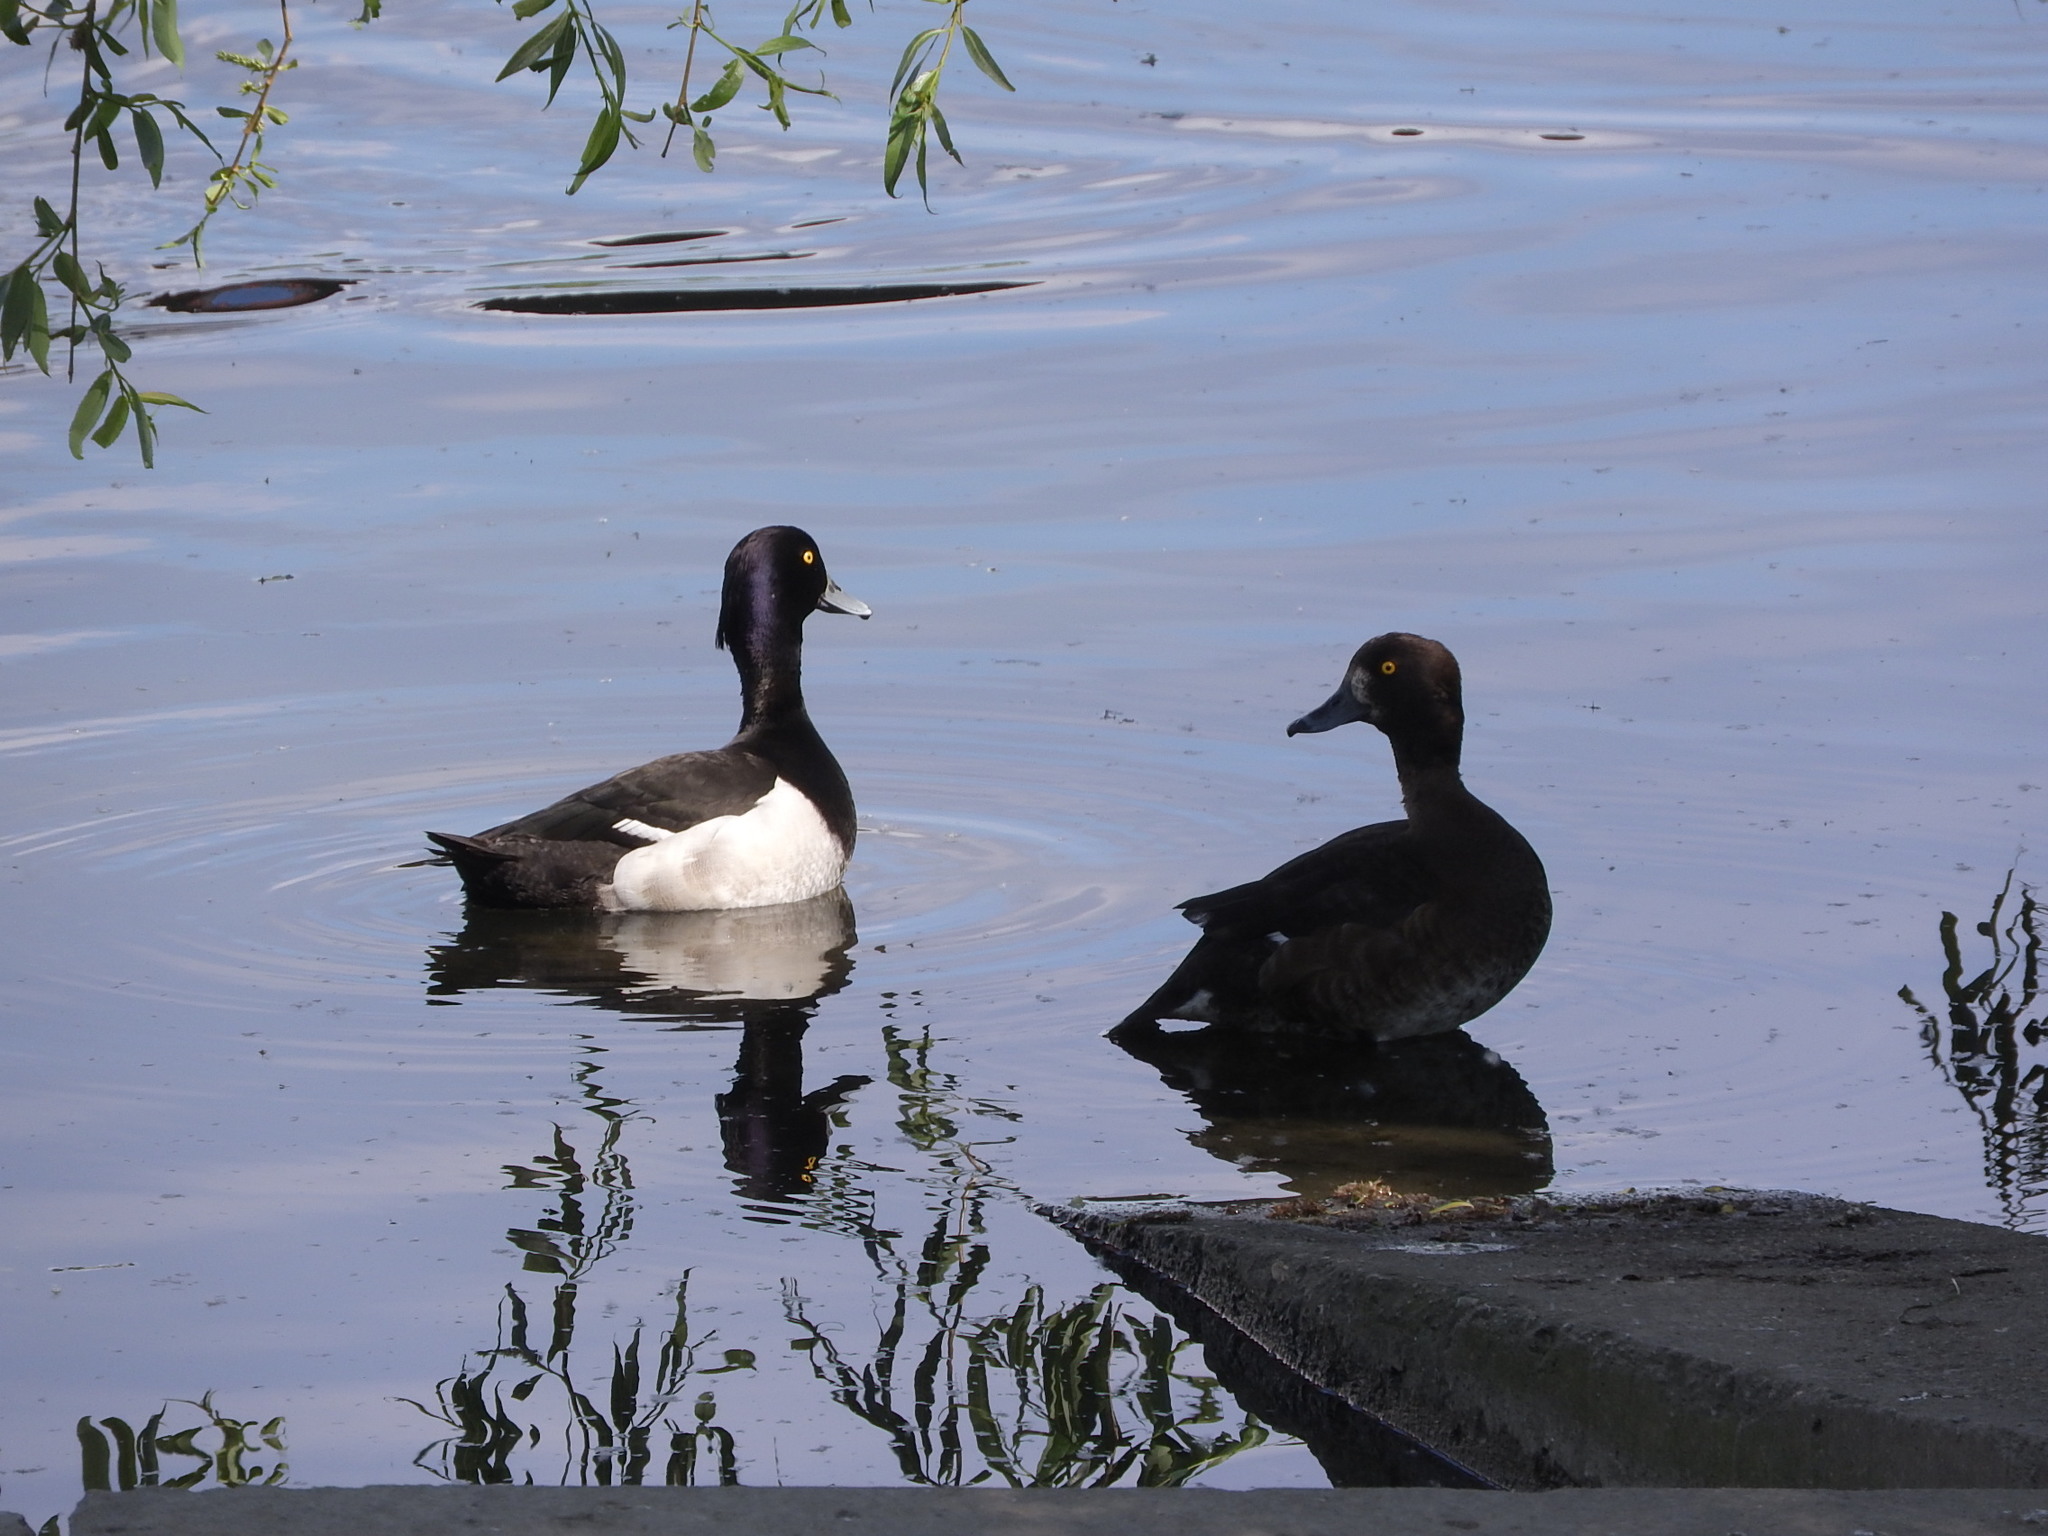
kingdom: Animalia
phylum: Chordata
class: Aves
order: Anseriformes
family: Anatidae
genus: Aythya
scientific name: Aythya fuligula
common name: Tufted duck
